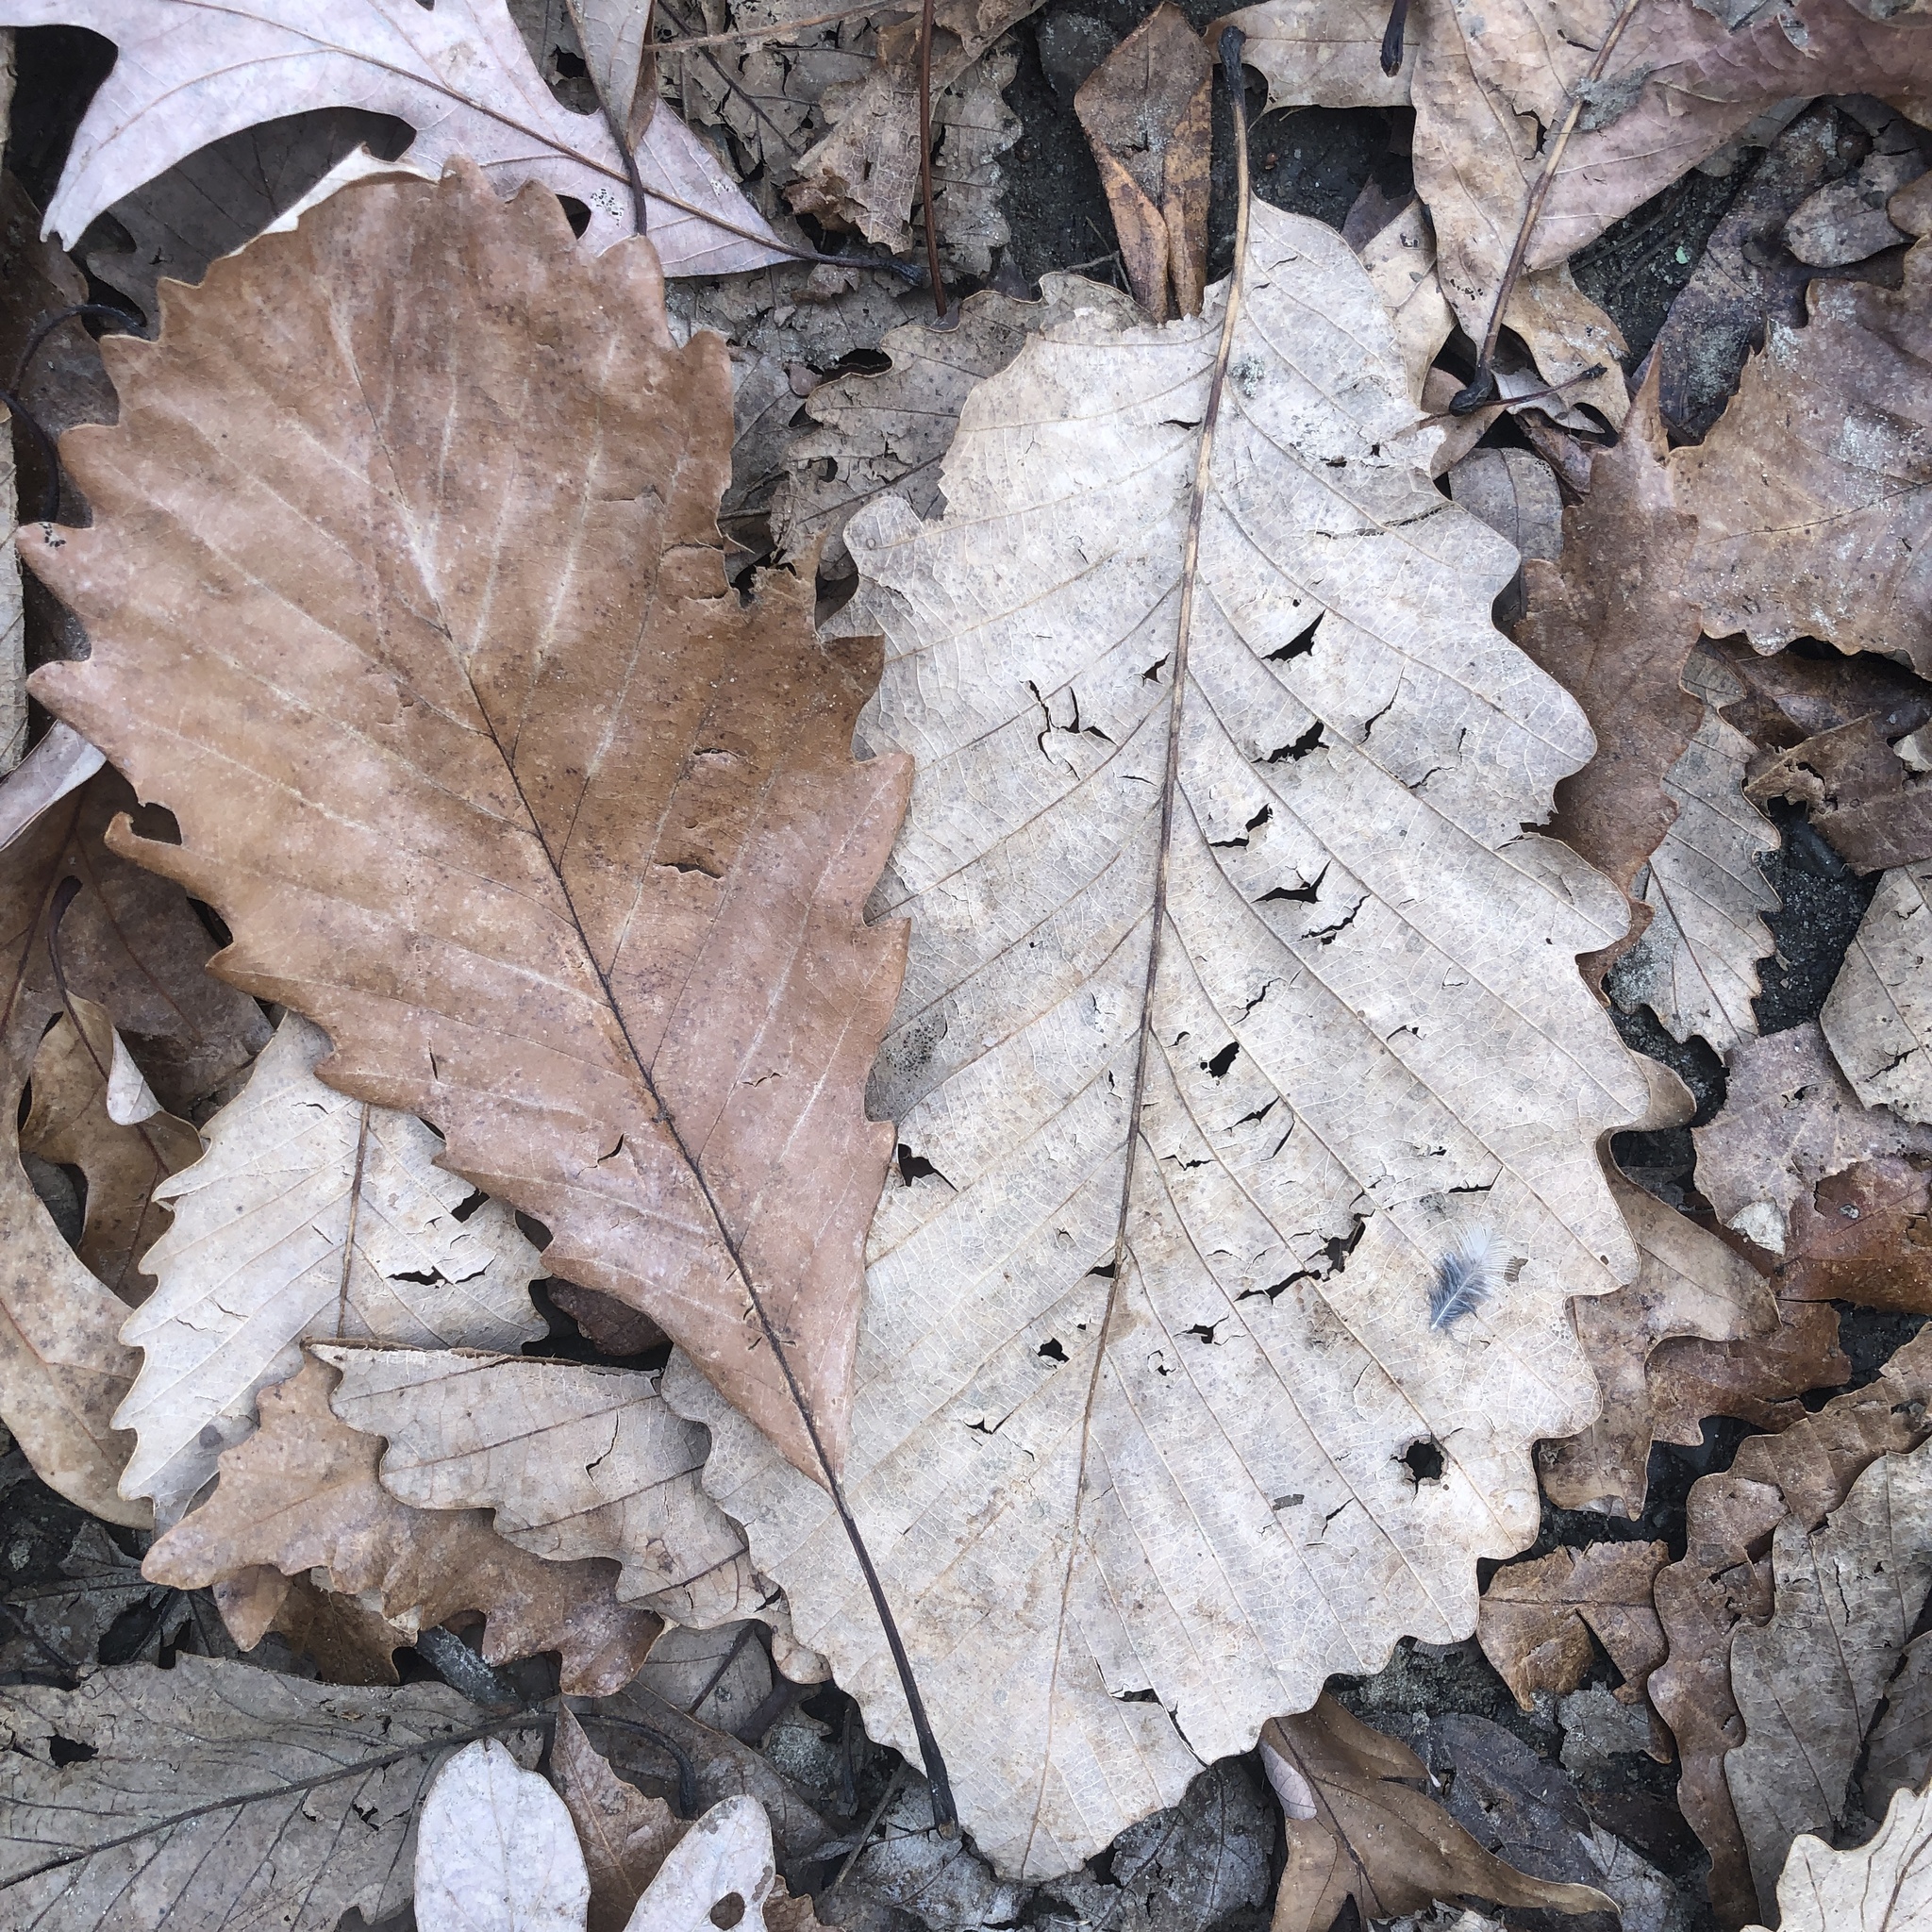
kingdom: Plantae
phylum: Tracheophyta
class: Magnoliopsida
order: Fagales
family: Fagaceae
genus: Quercus
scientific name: Quercus montana
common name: Chestnut oak
